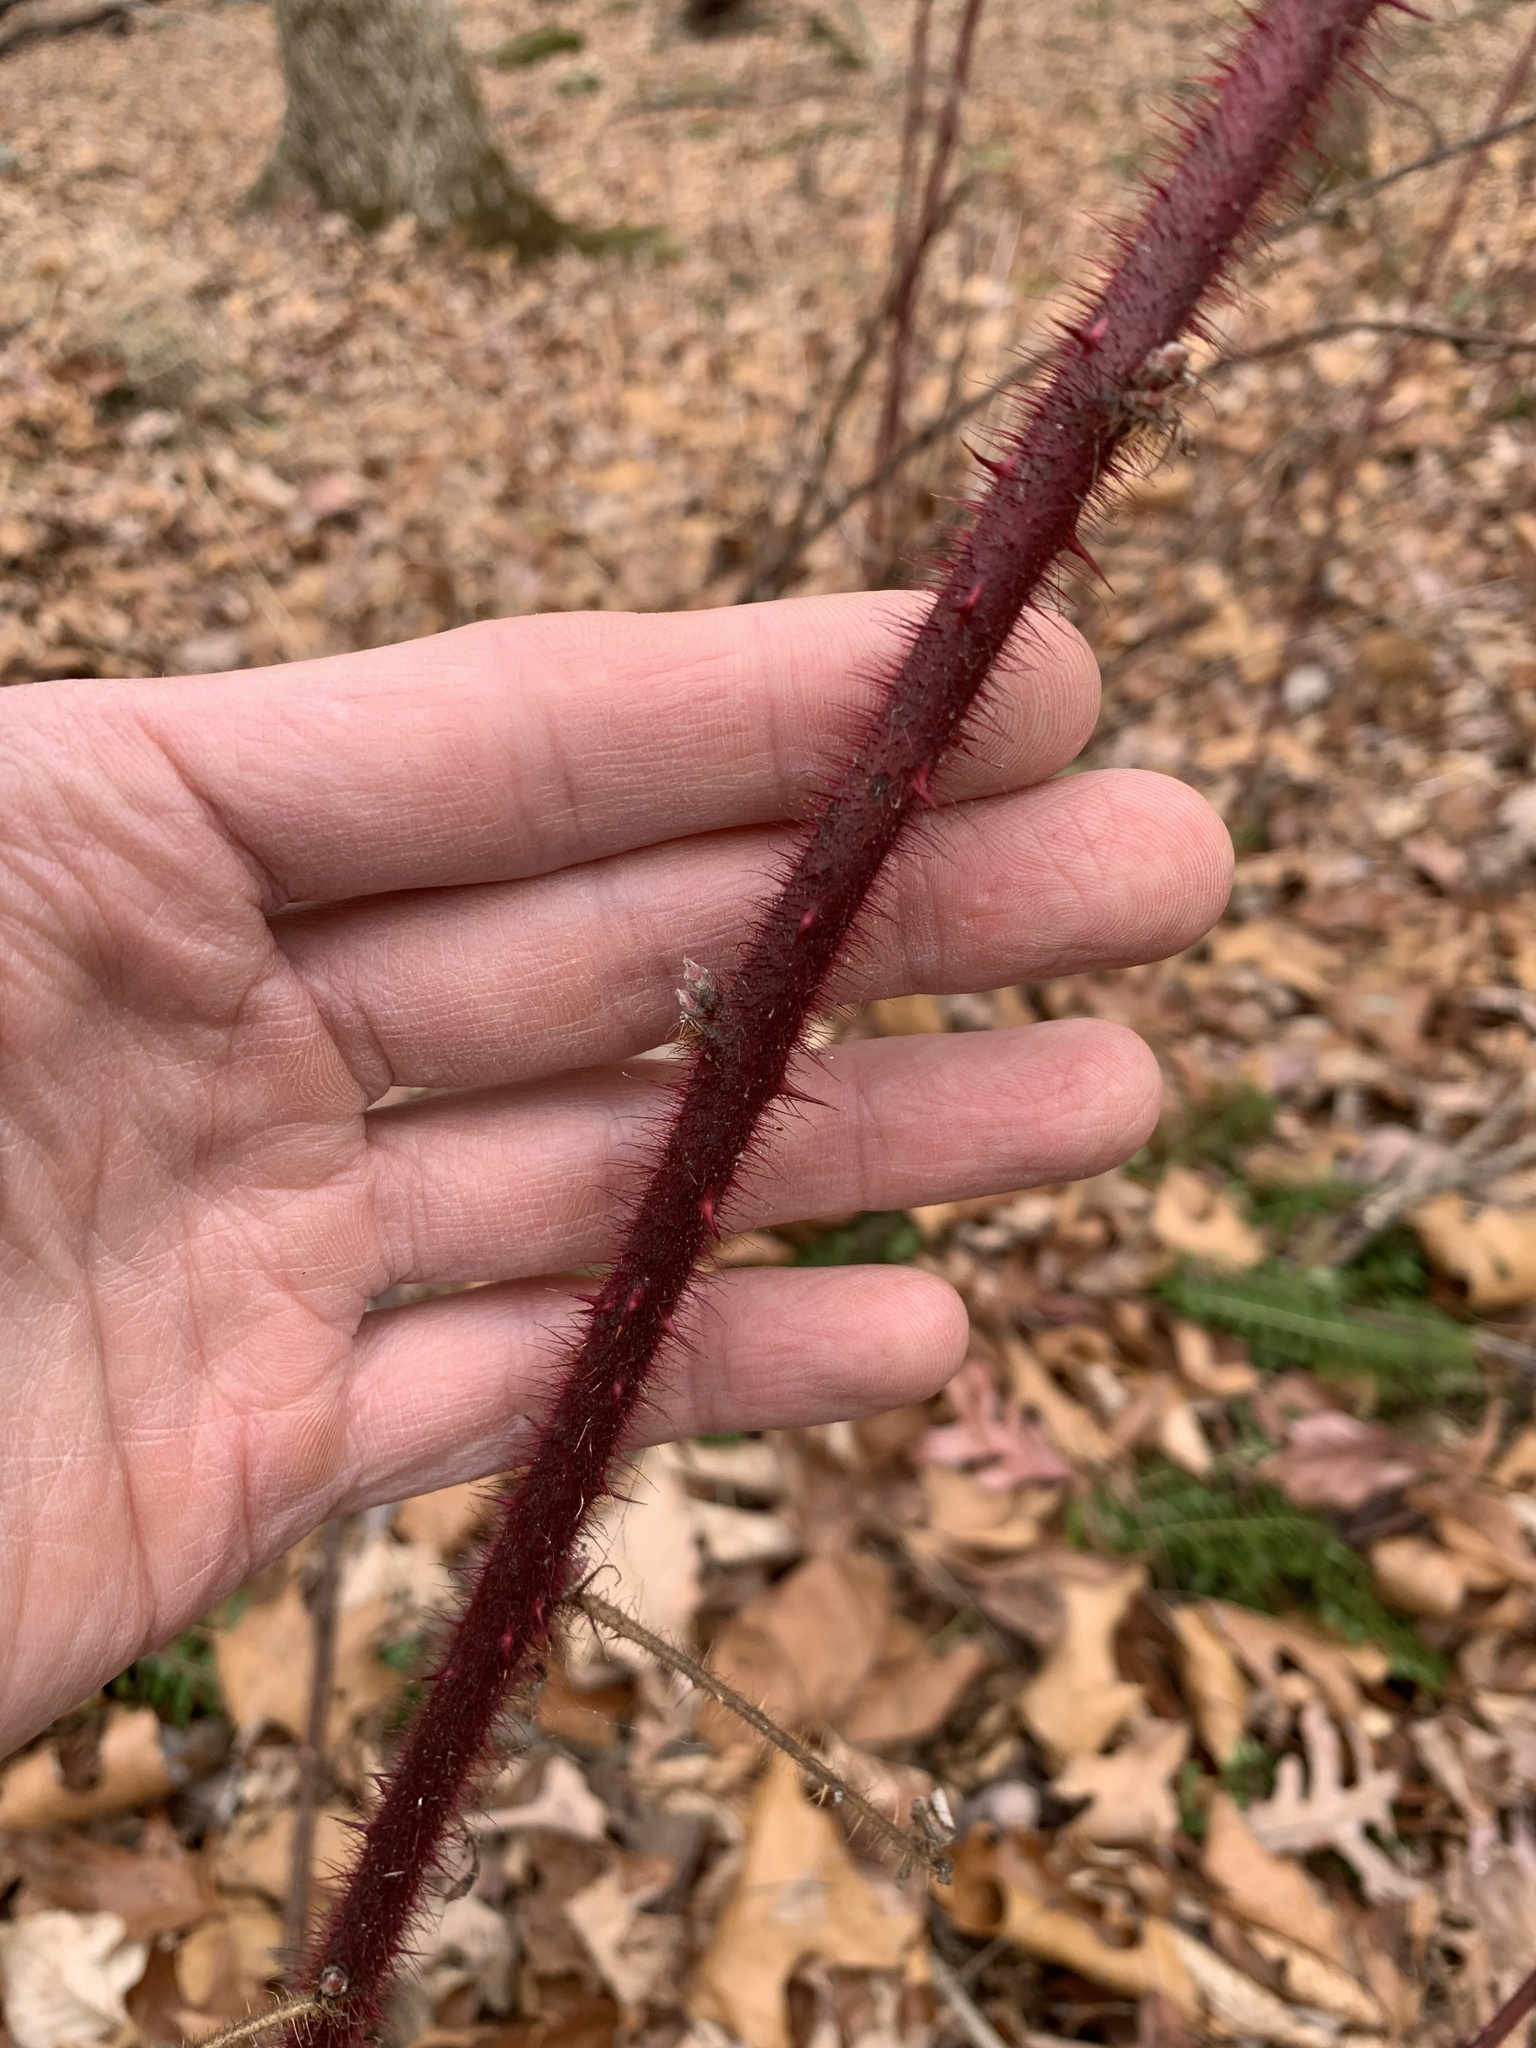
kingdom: Plantae
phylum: Tracheophyta
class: Magnoliopsida
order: Rosales
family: Rosaceae
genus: Rubus
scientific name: Rubus phoenicolasius
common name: Japanese wineberry
